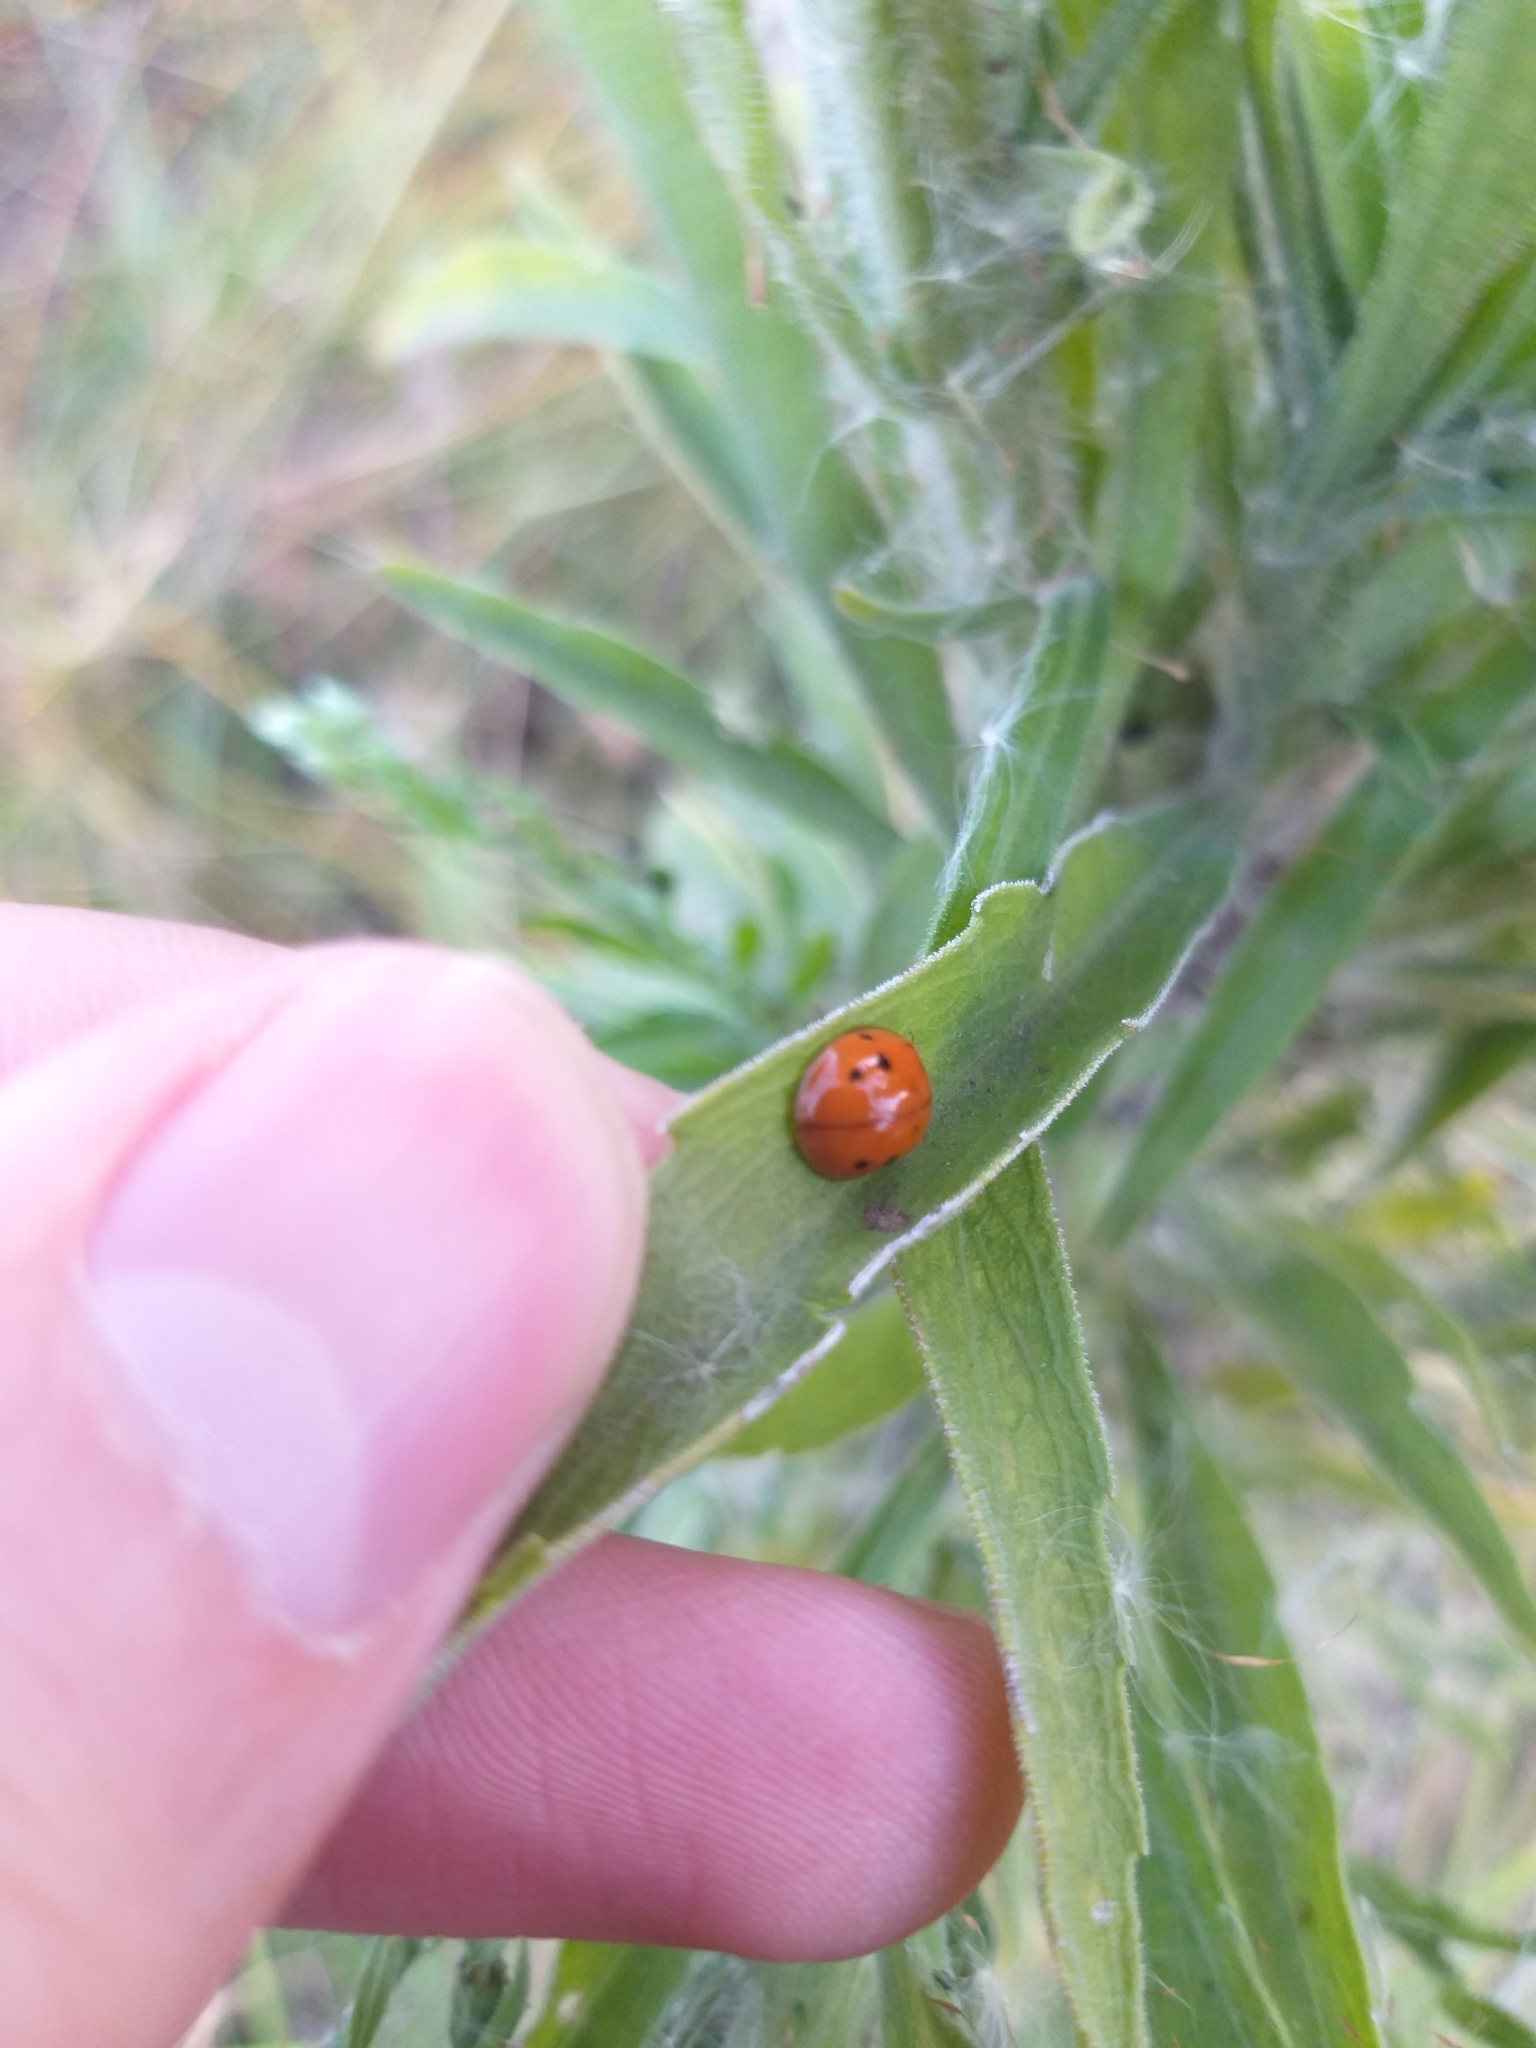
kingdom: Animalia
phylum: Arthropoda
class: Insecta
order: Coleoptera
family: Coccinellidae
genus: Harmonia
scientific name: Harmonia axyridis
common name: Harlequin ladybird
